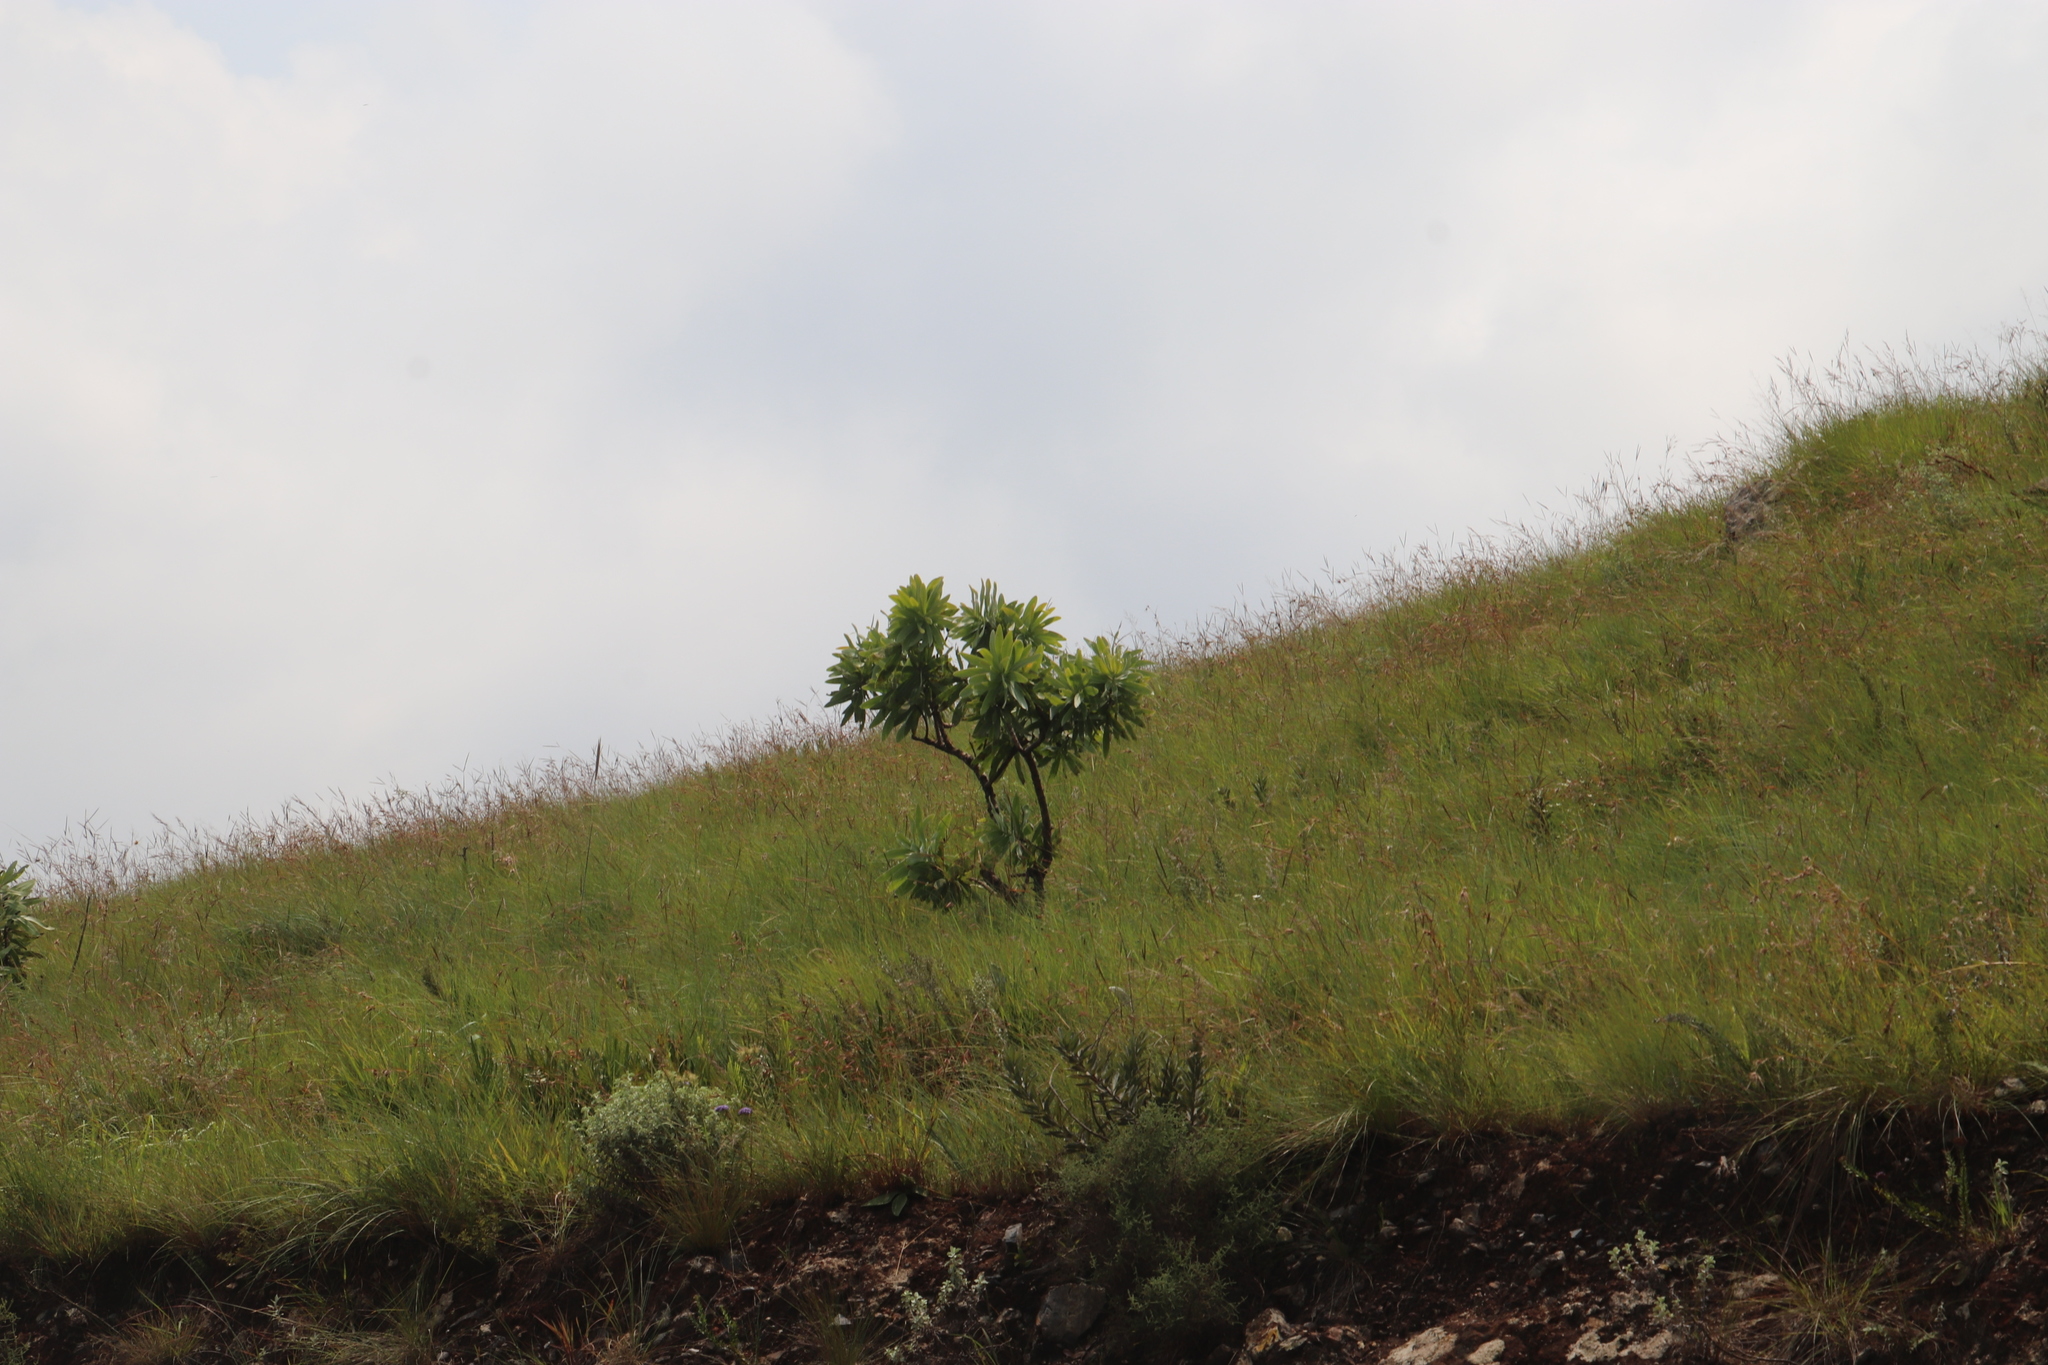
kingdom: Plantae
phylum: Tracheophyta
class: Magnoliopsida
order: Proteales
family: Proteaceae
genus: Protea
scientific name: Protea caffra
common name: Common sugarbush
